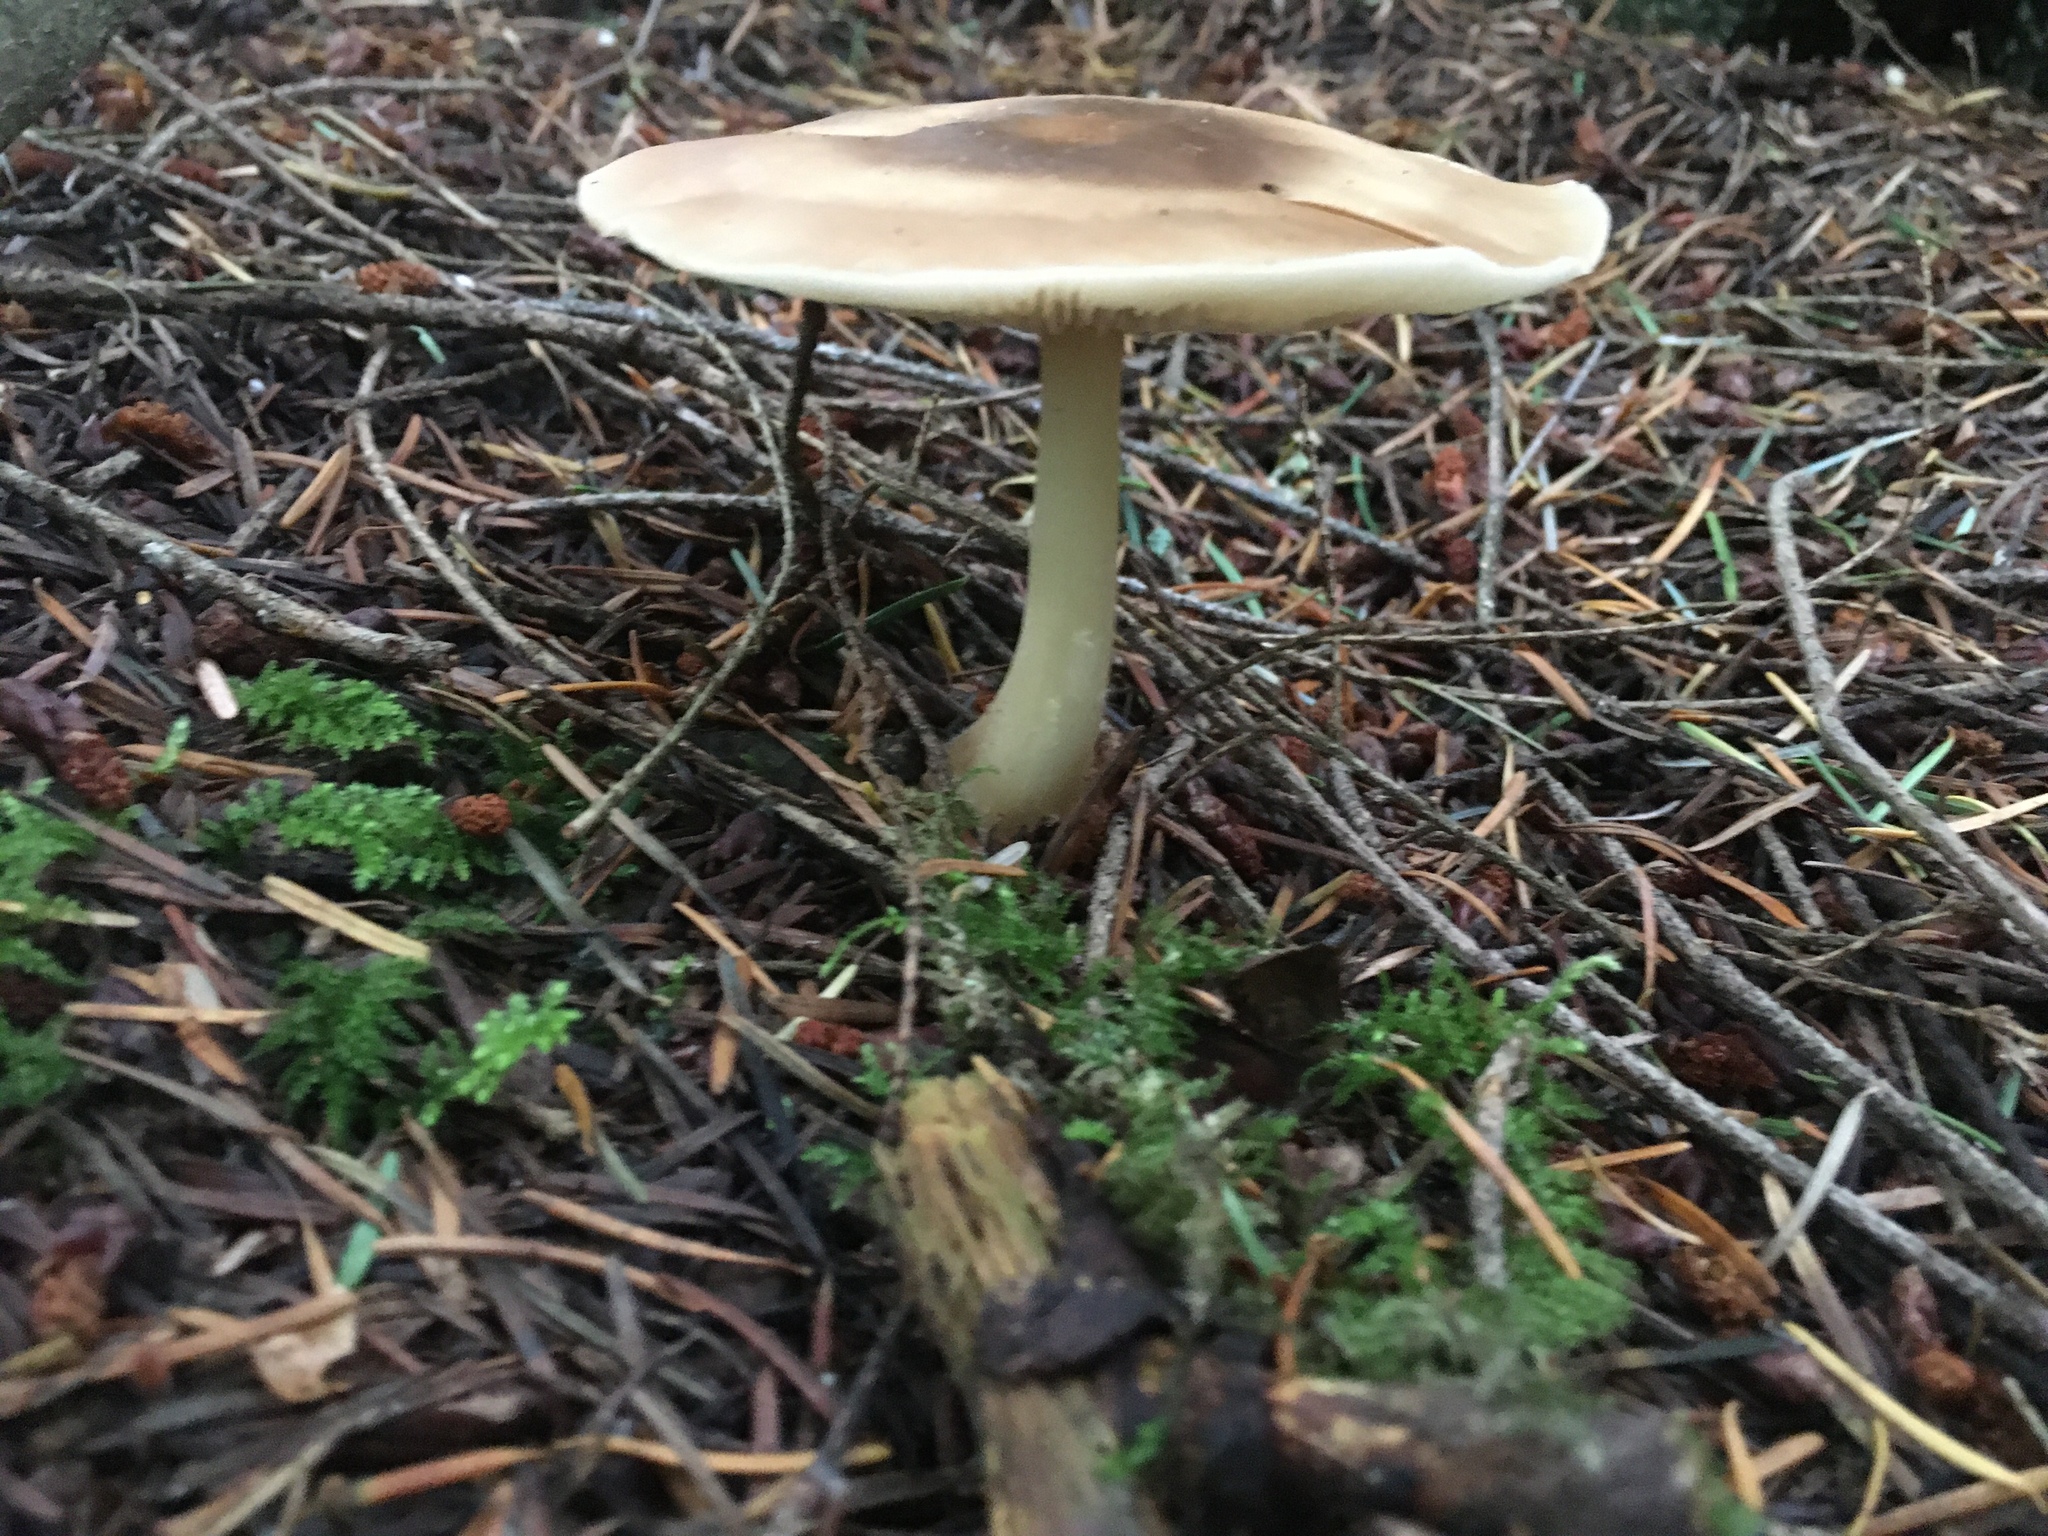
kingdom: Fungi
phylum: Basidiomycota
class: Agaricomycetes
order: Agaricales
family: Omphalotaceae
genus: Rhodocollybia
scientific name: Rhodocollybia butyracea
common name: Butter cap
